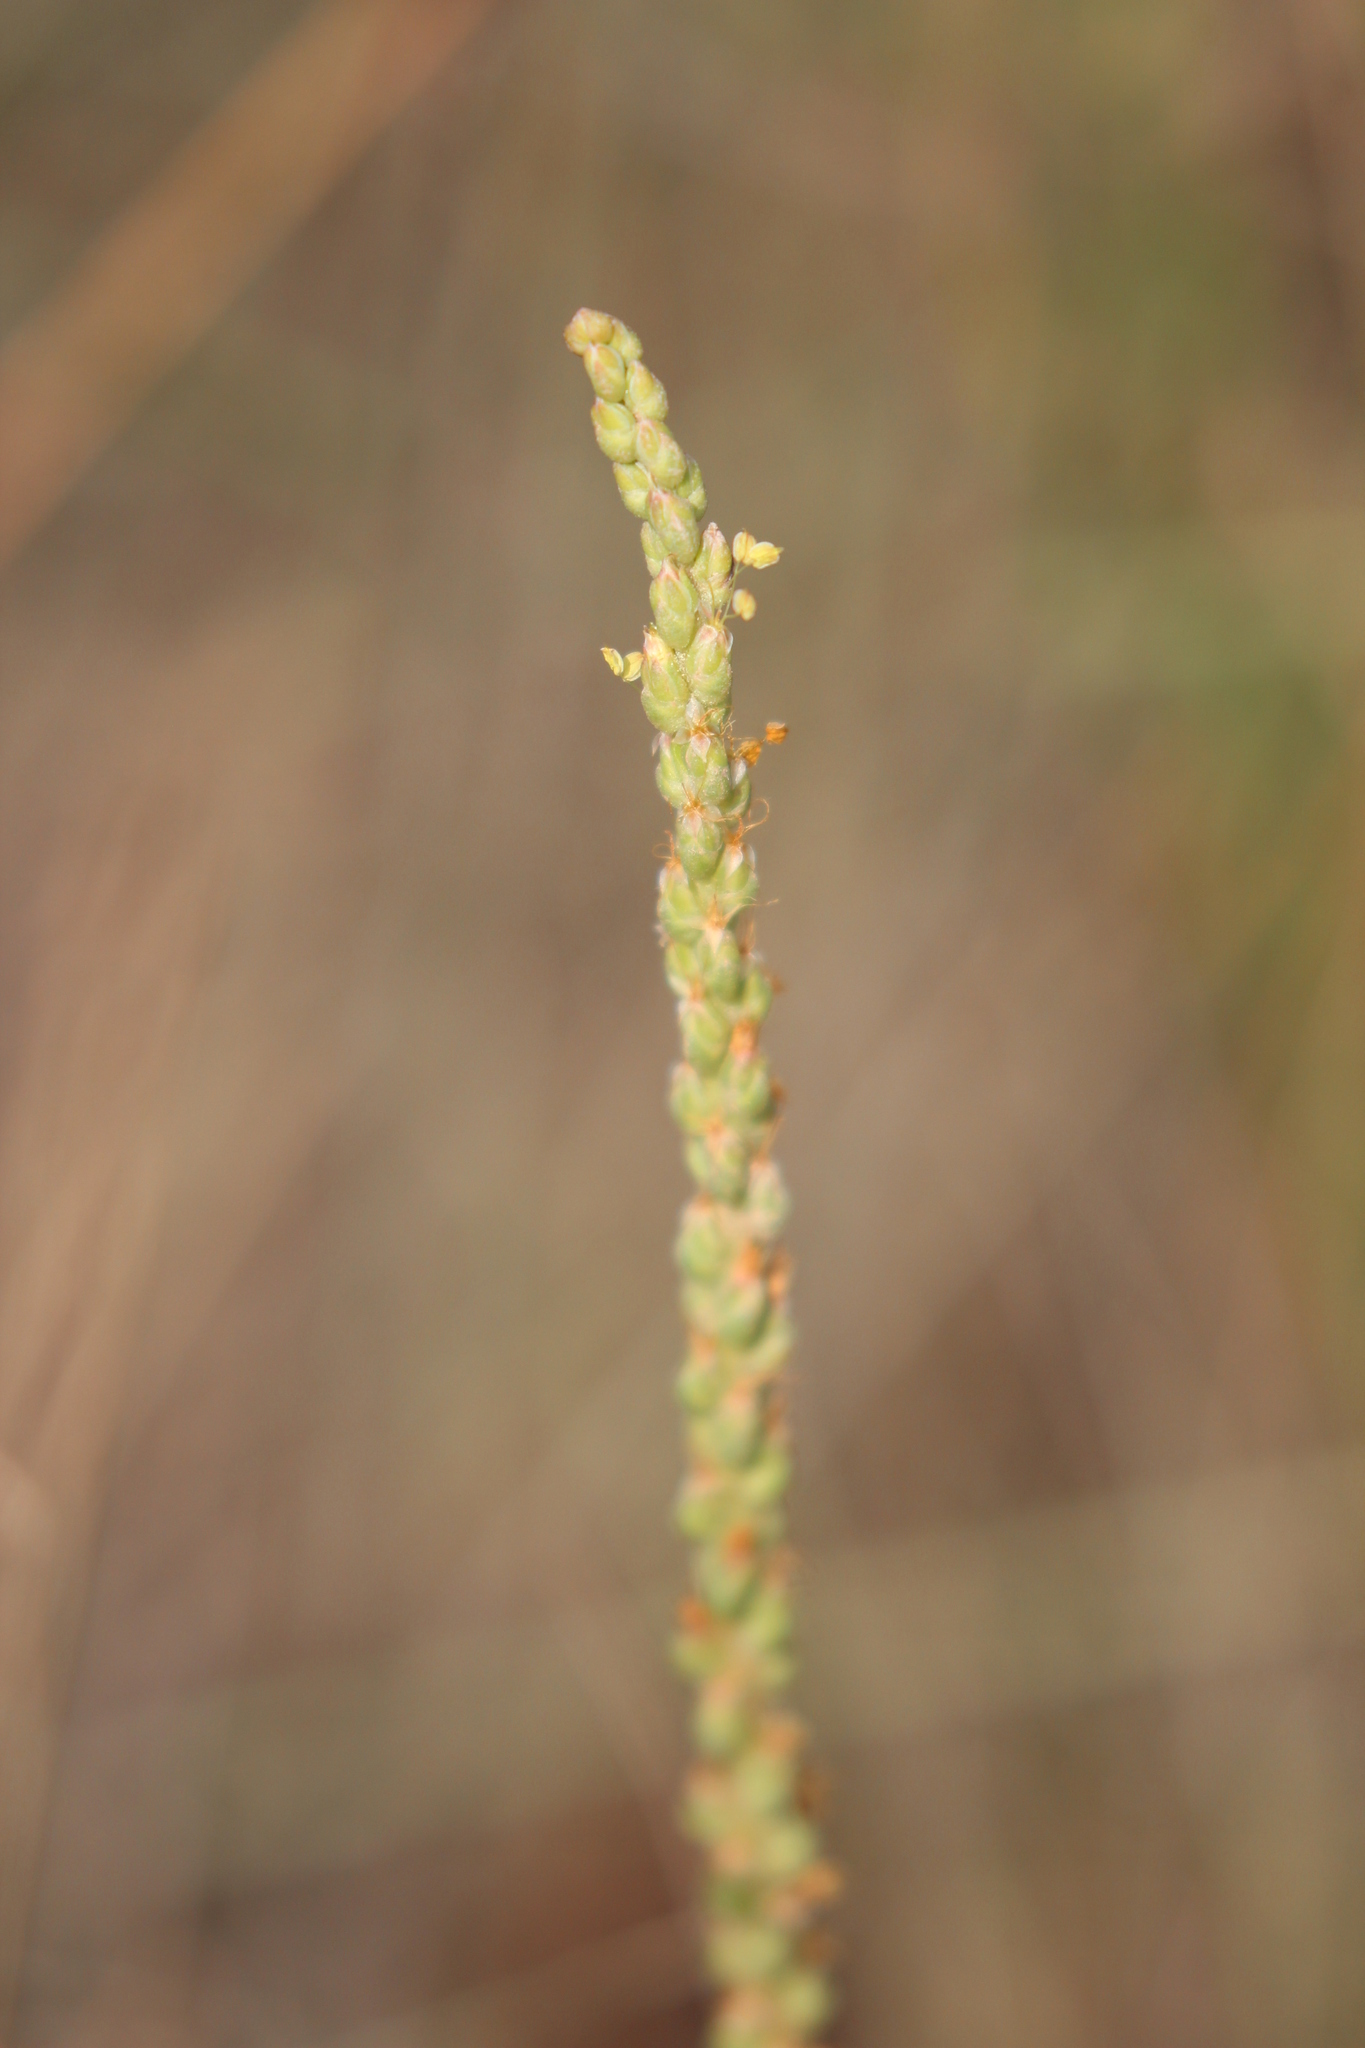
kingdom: Plantae
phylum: Tracheophyta
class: Magnoliopsida
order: Lamiales
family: Plantaginaceae
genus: Plantago
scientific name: Plantago maritima
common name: Sea plantain
